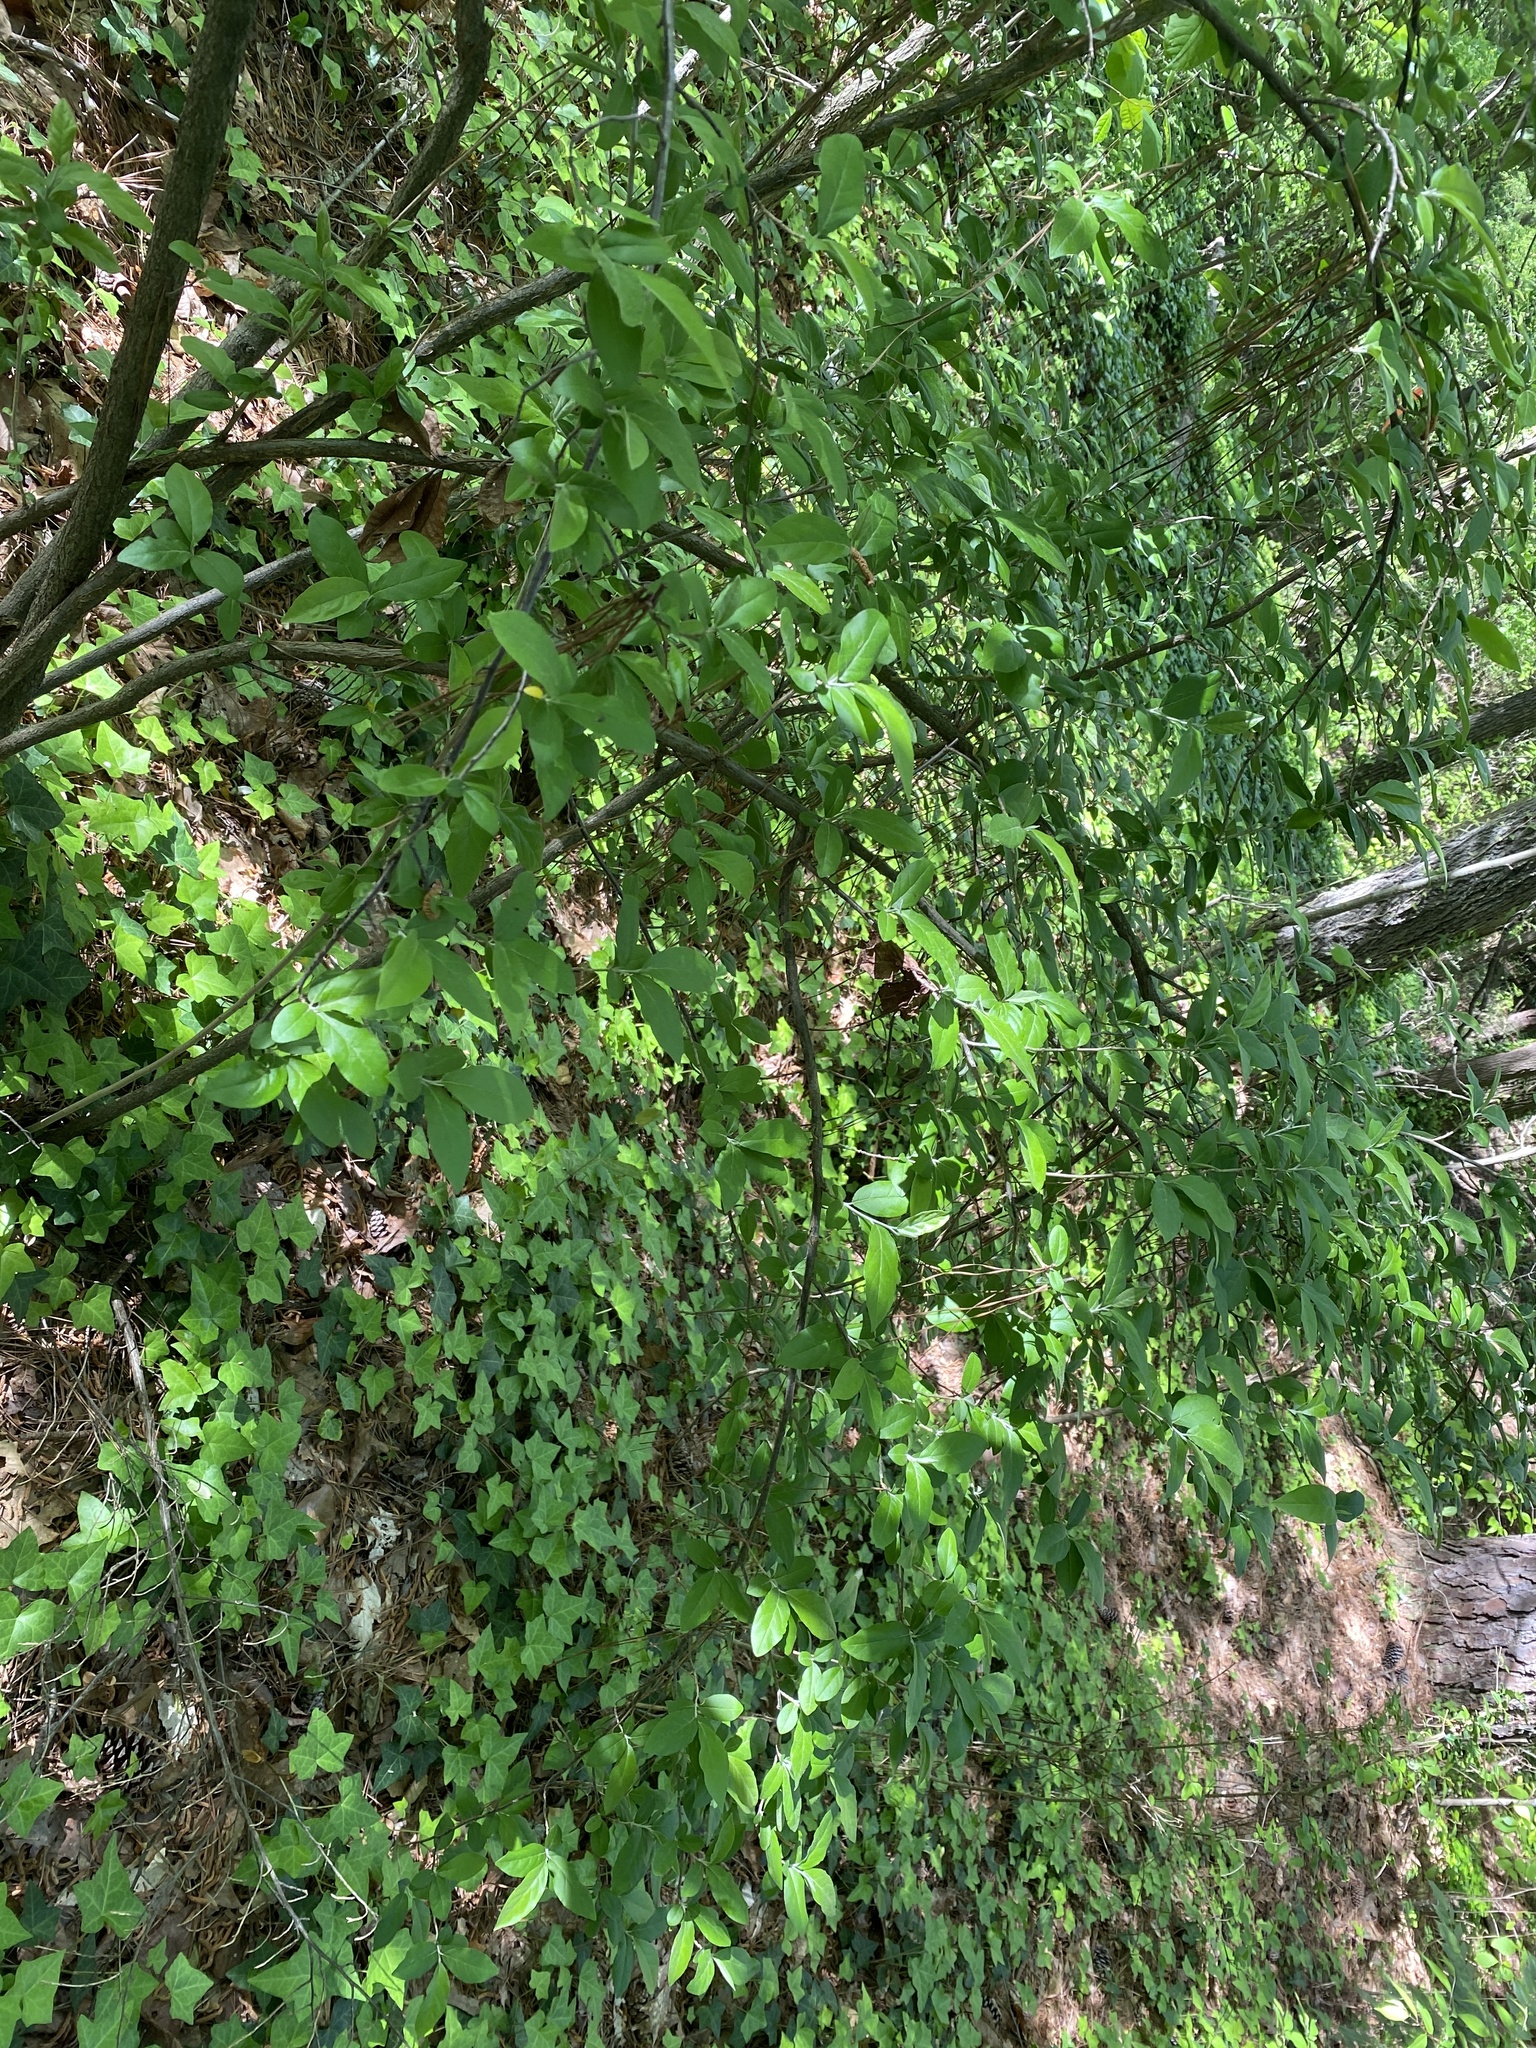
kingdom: Plantae
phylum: Tracheophyta
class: Magnoliopsida
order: Rosales
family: Elaeagnaceae
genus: Elaeagnus
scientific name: Elaeagnus umbellata
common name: Autumn olive
